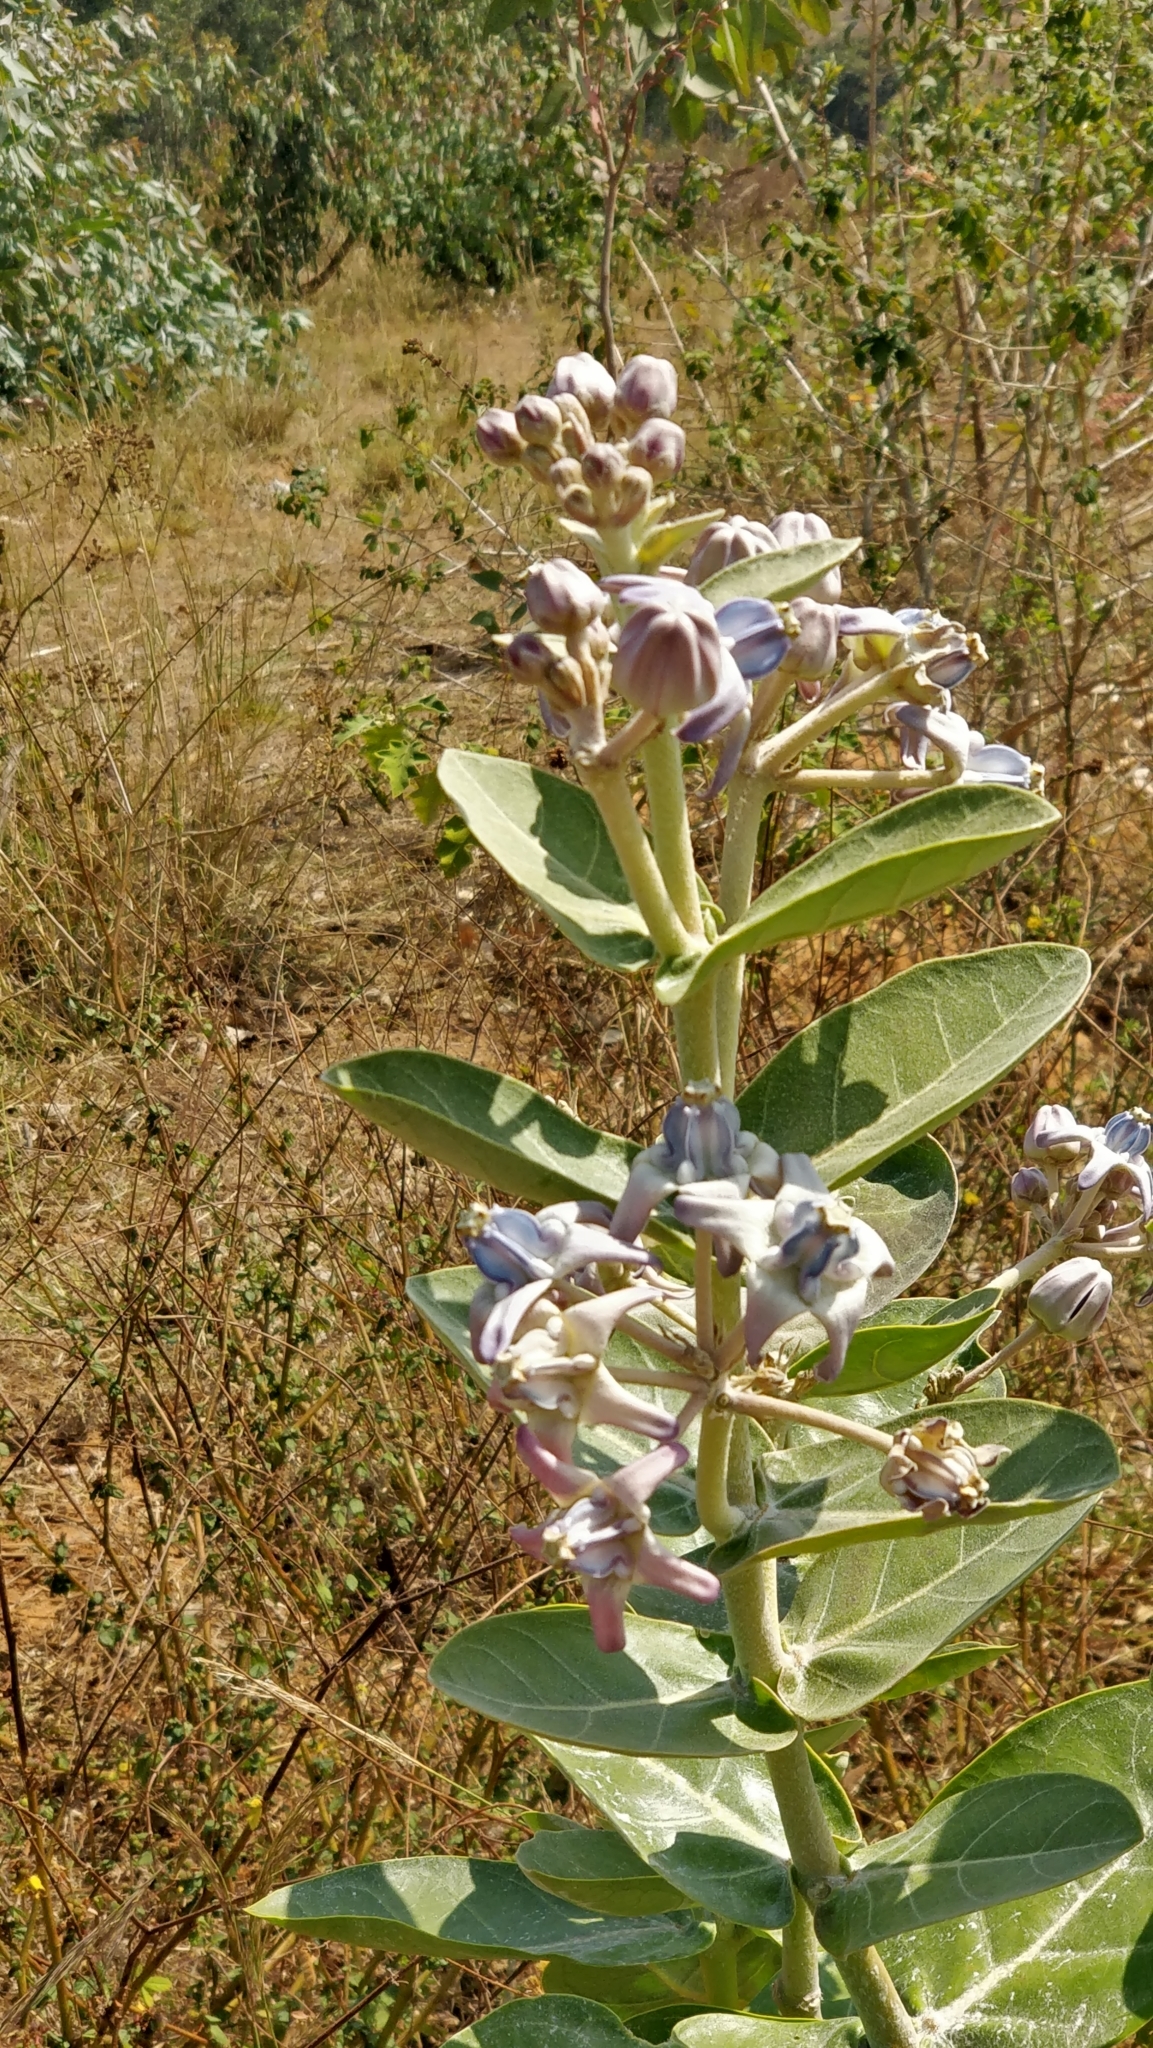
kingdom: Plantae
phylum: Tracheophyta
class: Magnoliopsida
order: Gentianales
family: Apocynaceae
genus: Calotropis
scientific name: Calotropis gigantea
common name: Crown flower
